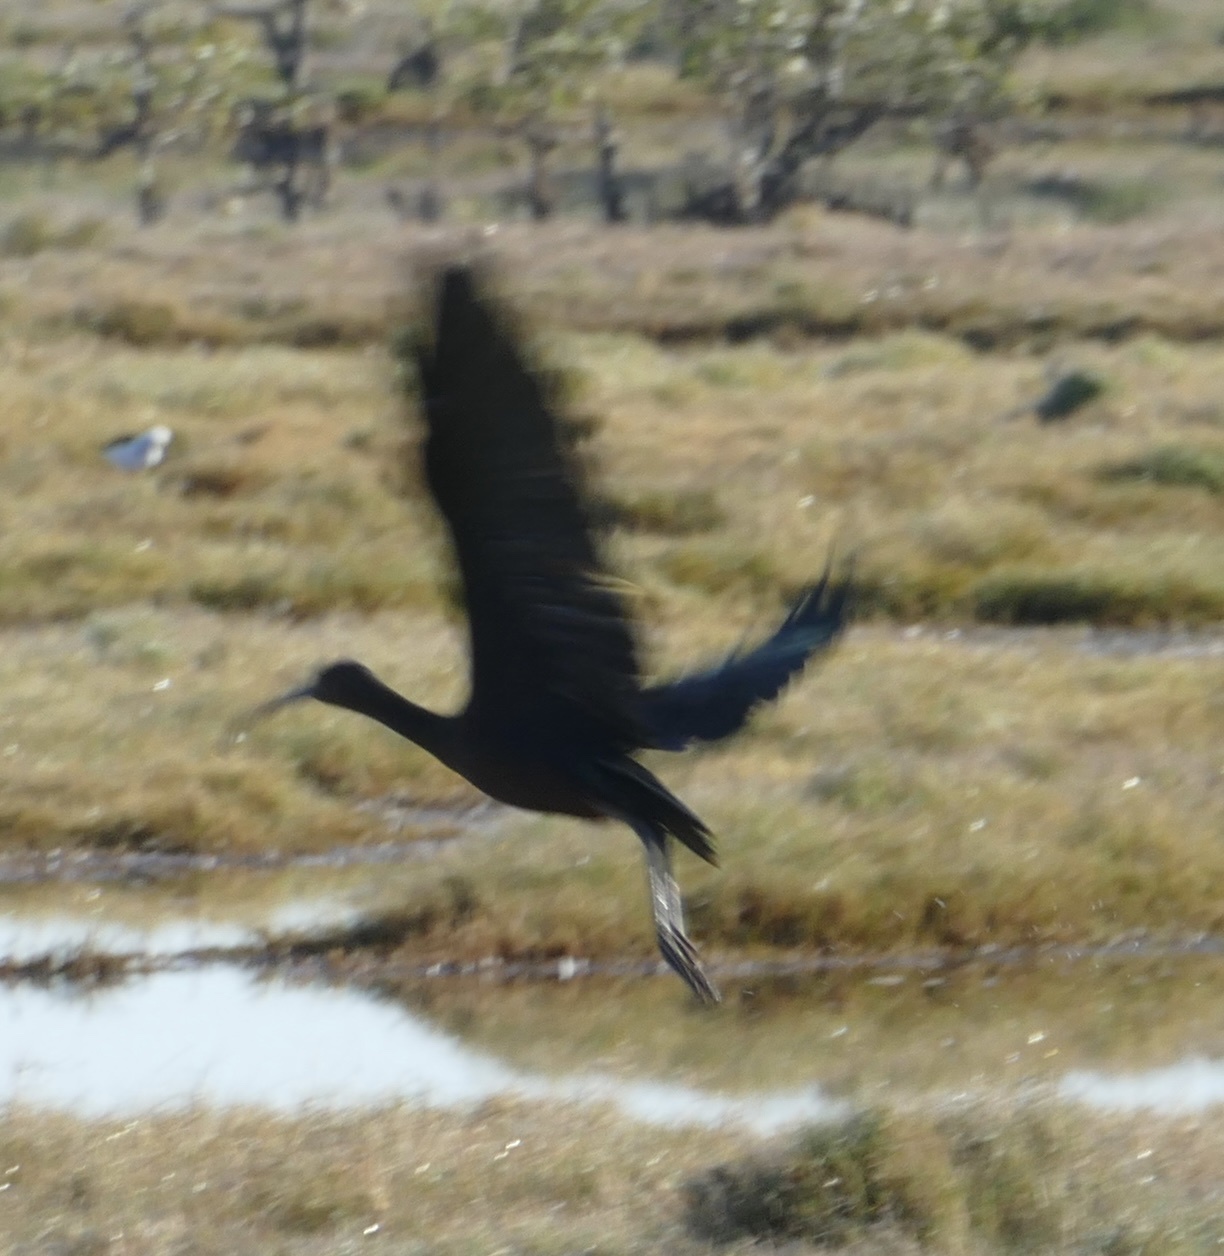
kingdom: Animalia
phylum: Chordata
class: Aves
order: Pelecaniformes
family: Threskiornithidae
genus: Plegadis
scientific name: Plegadis falcinellus
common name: Glossy ibis
